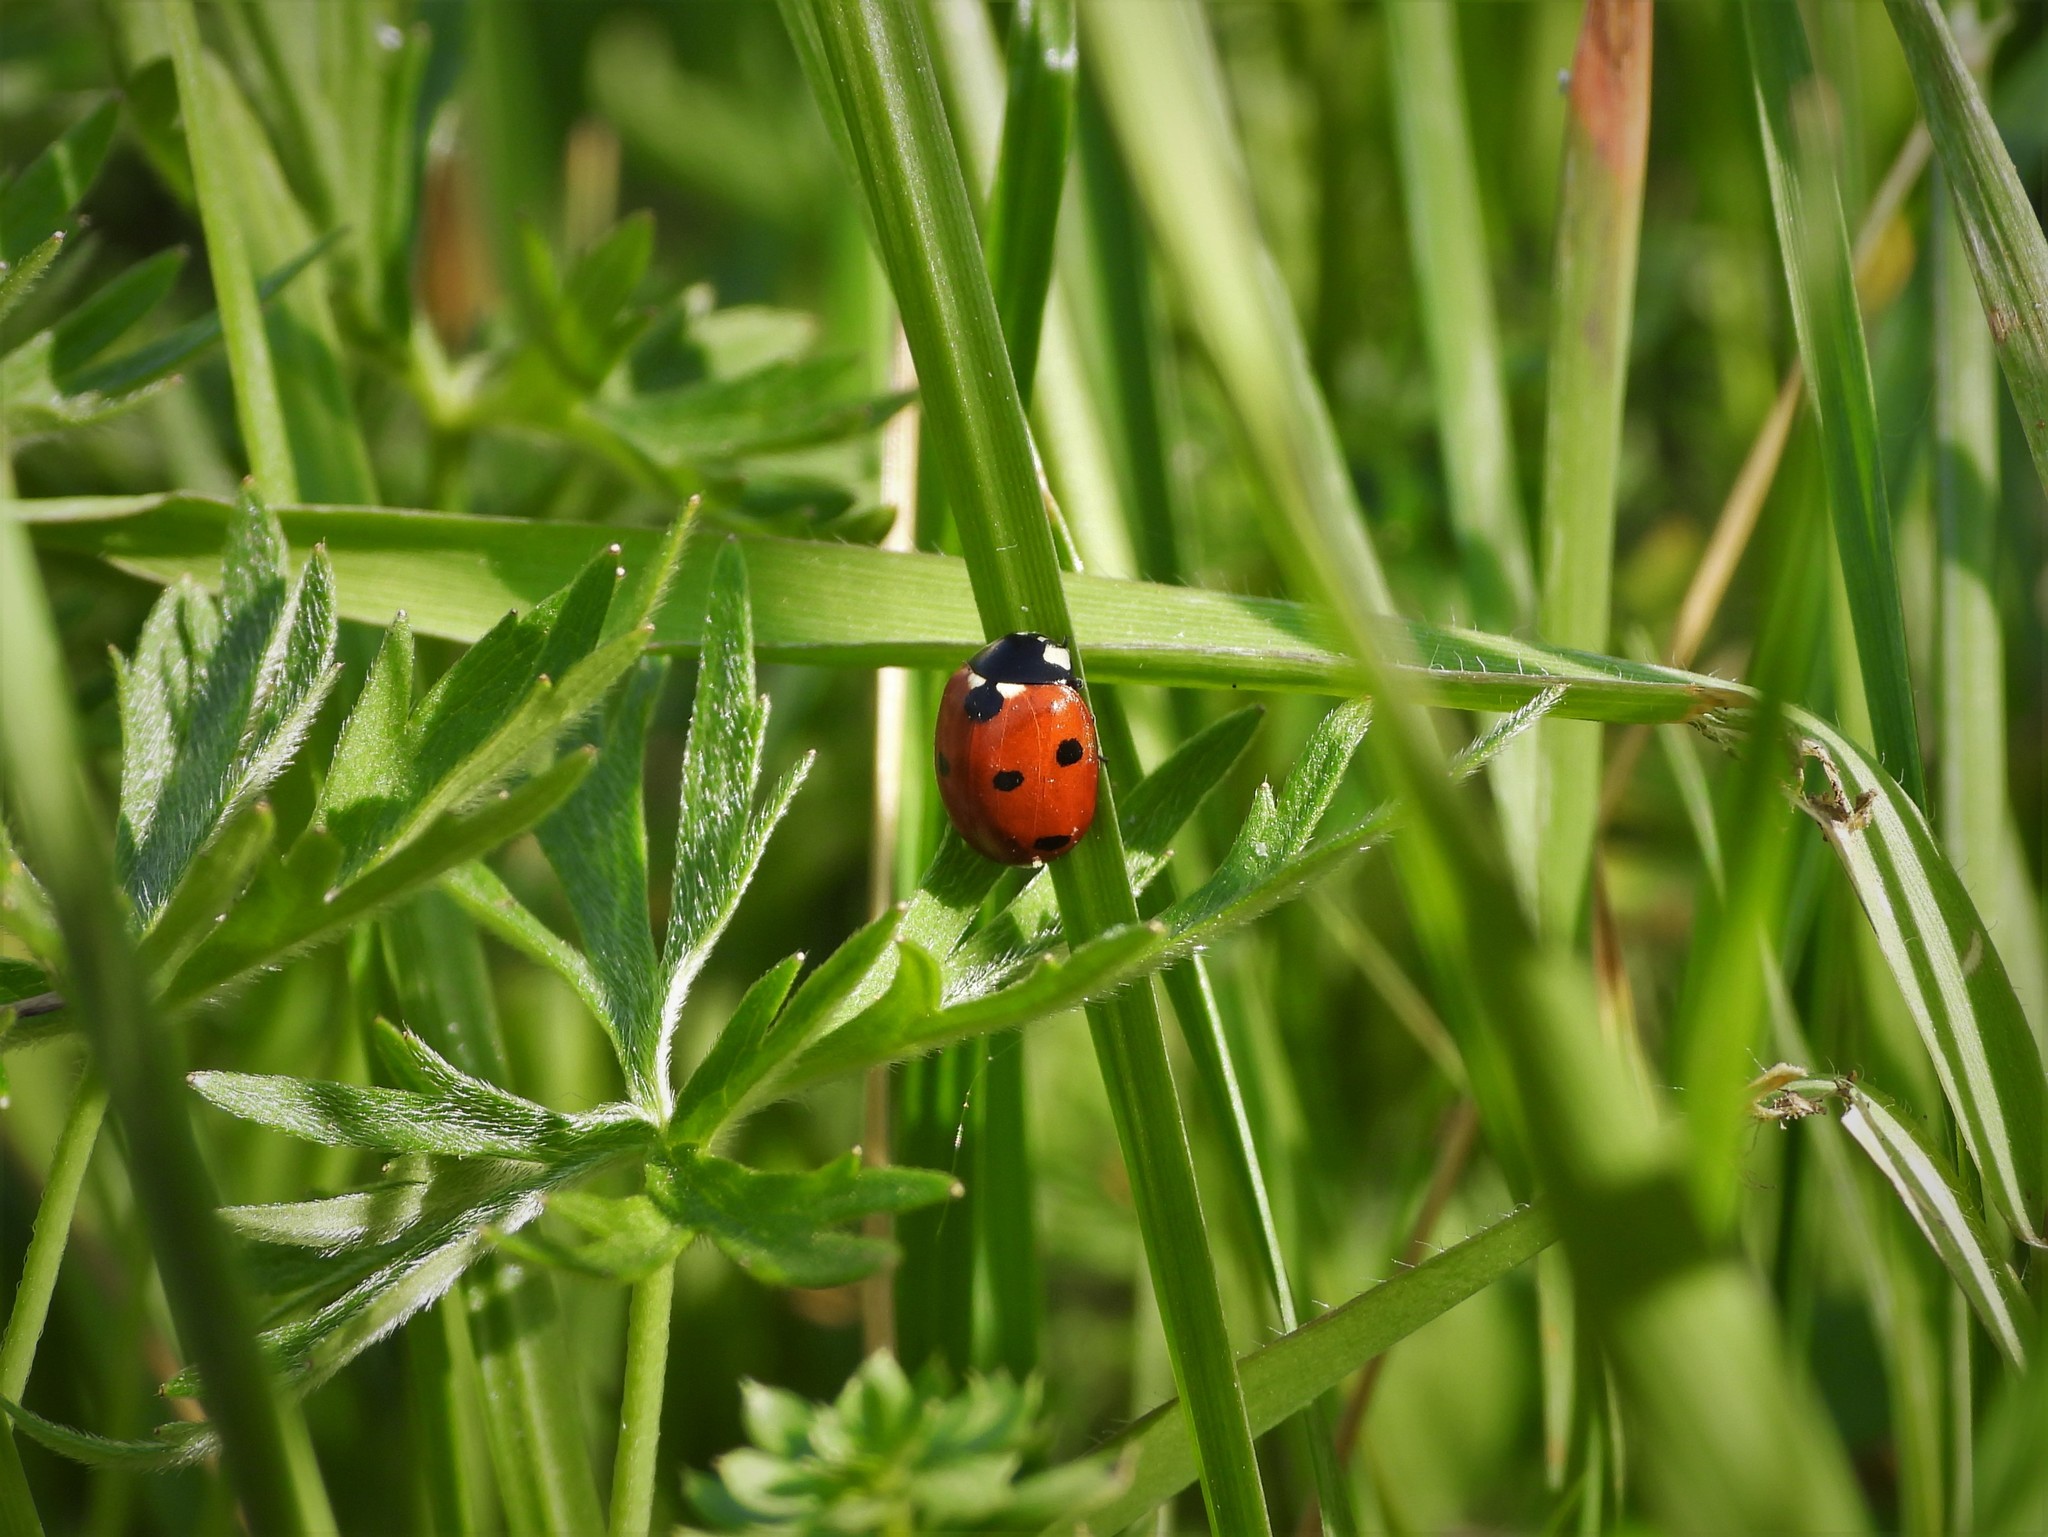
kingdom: Animalia
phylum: Arthropoda
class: Insecta
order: Coleoptera
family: Coccinellidae
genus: Coccinella
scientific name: Coccinella septempunctata
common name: Sevenspotted lady beetle
